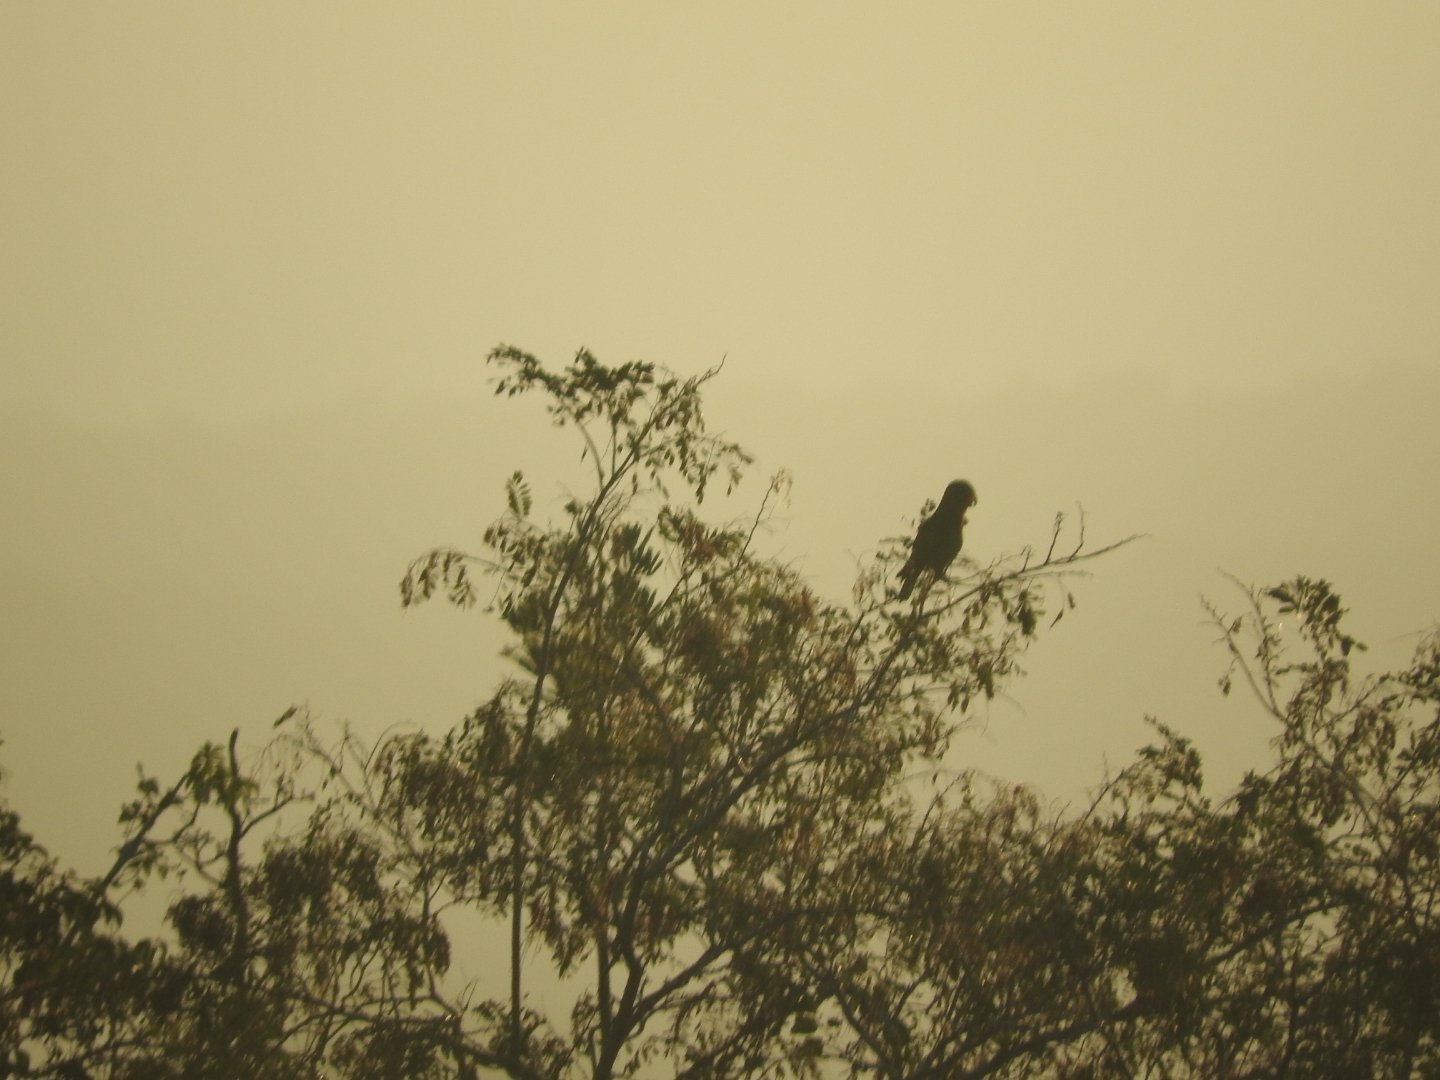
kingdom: Animalia
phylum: Chordata
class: Aves
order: Psittaciformes
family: Psittacidae
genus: Amazona
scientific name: Amazona albifrons
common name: White-fronted amazon
